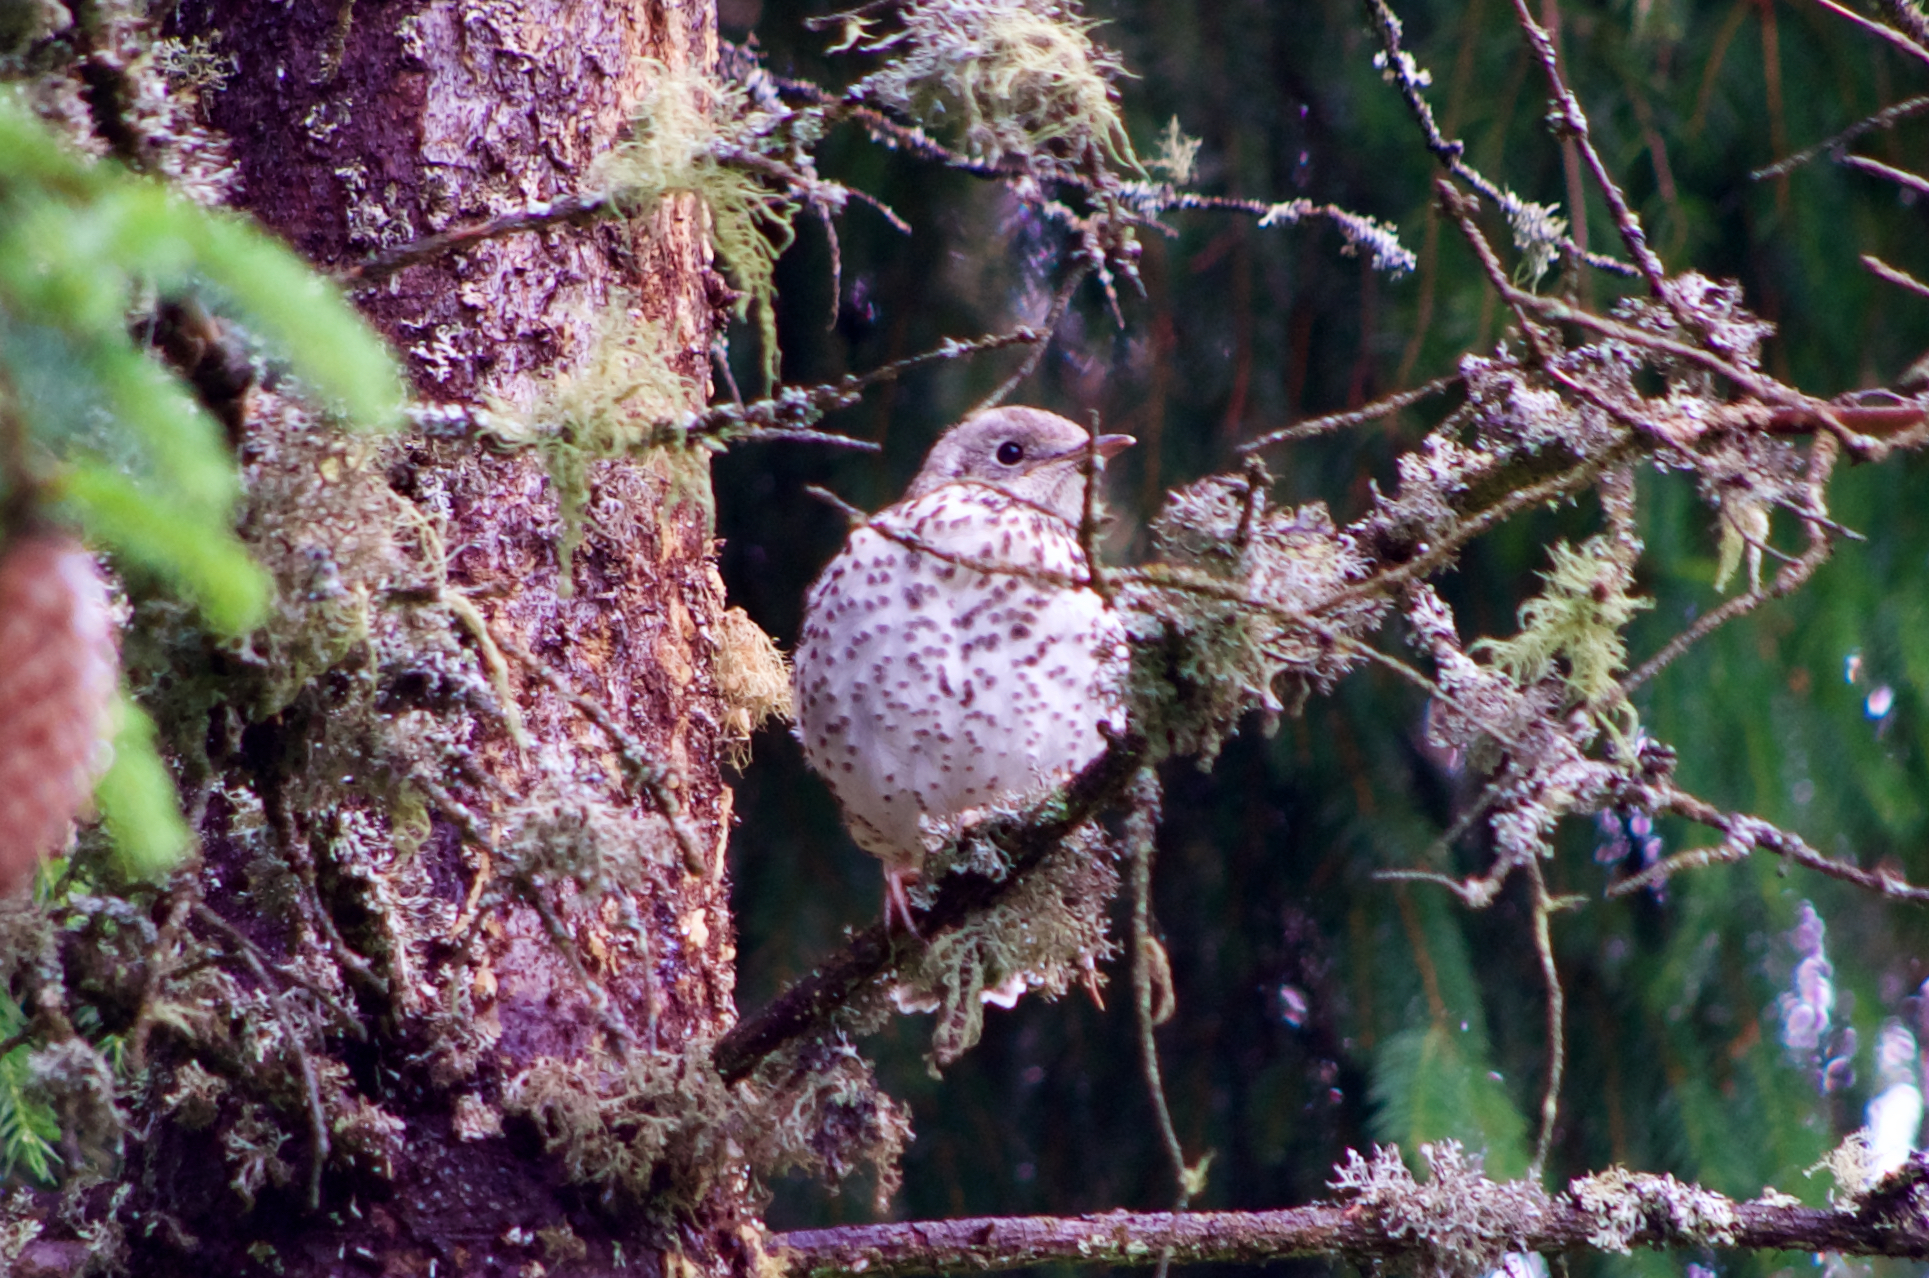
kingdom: Animalia
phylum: Chordata
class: Aves
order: Passeriformes
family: Turdidae
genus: Turdus
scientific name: Turdus viscivorus
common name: Mistle thrush
